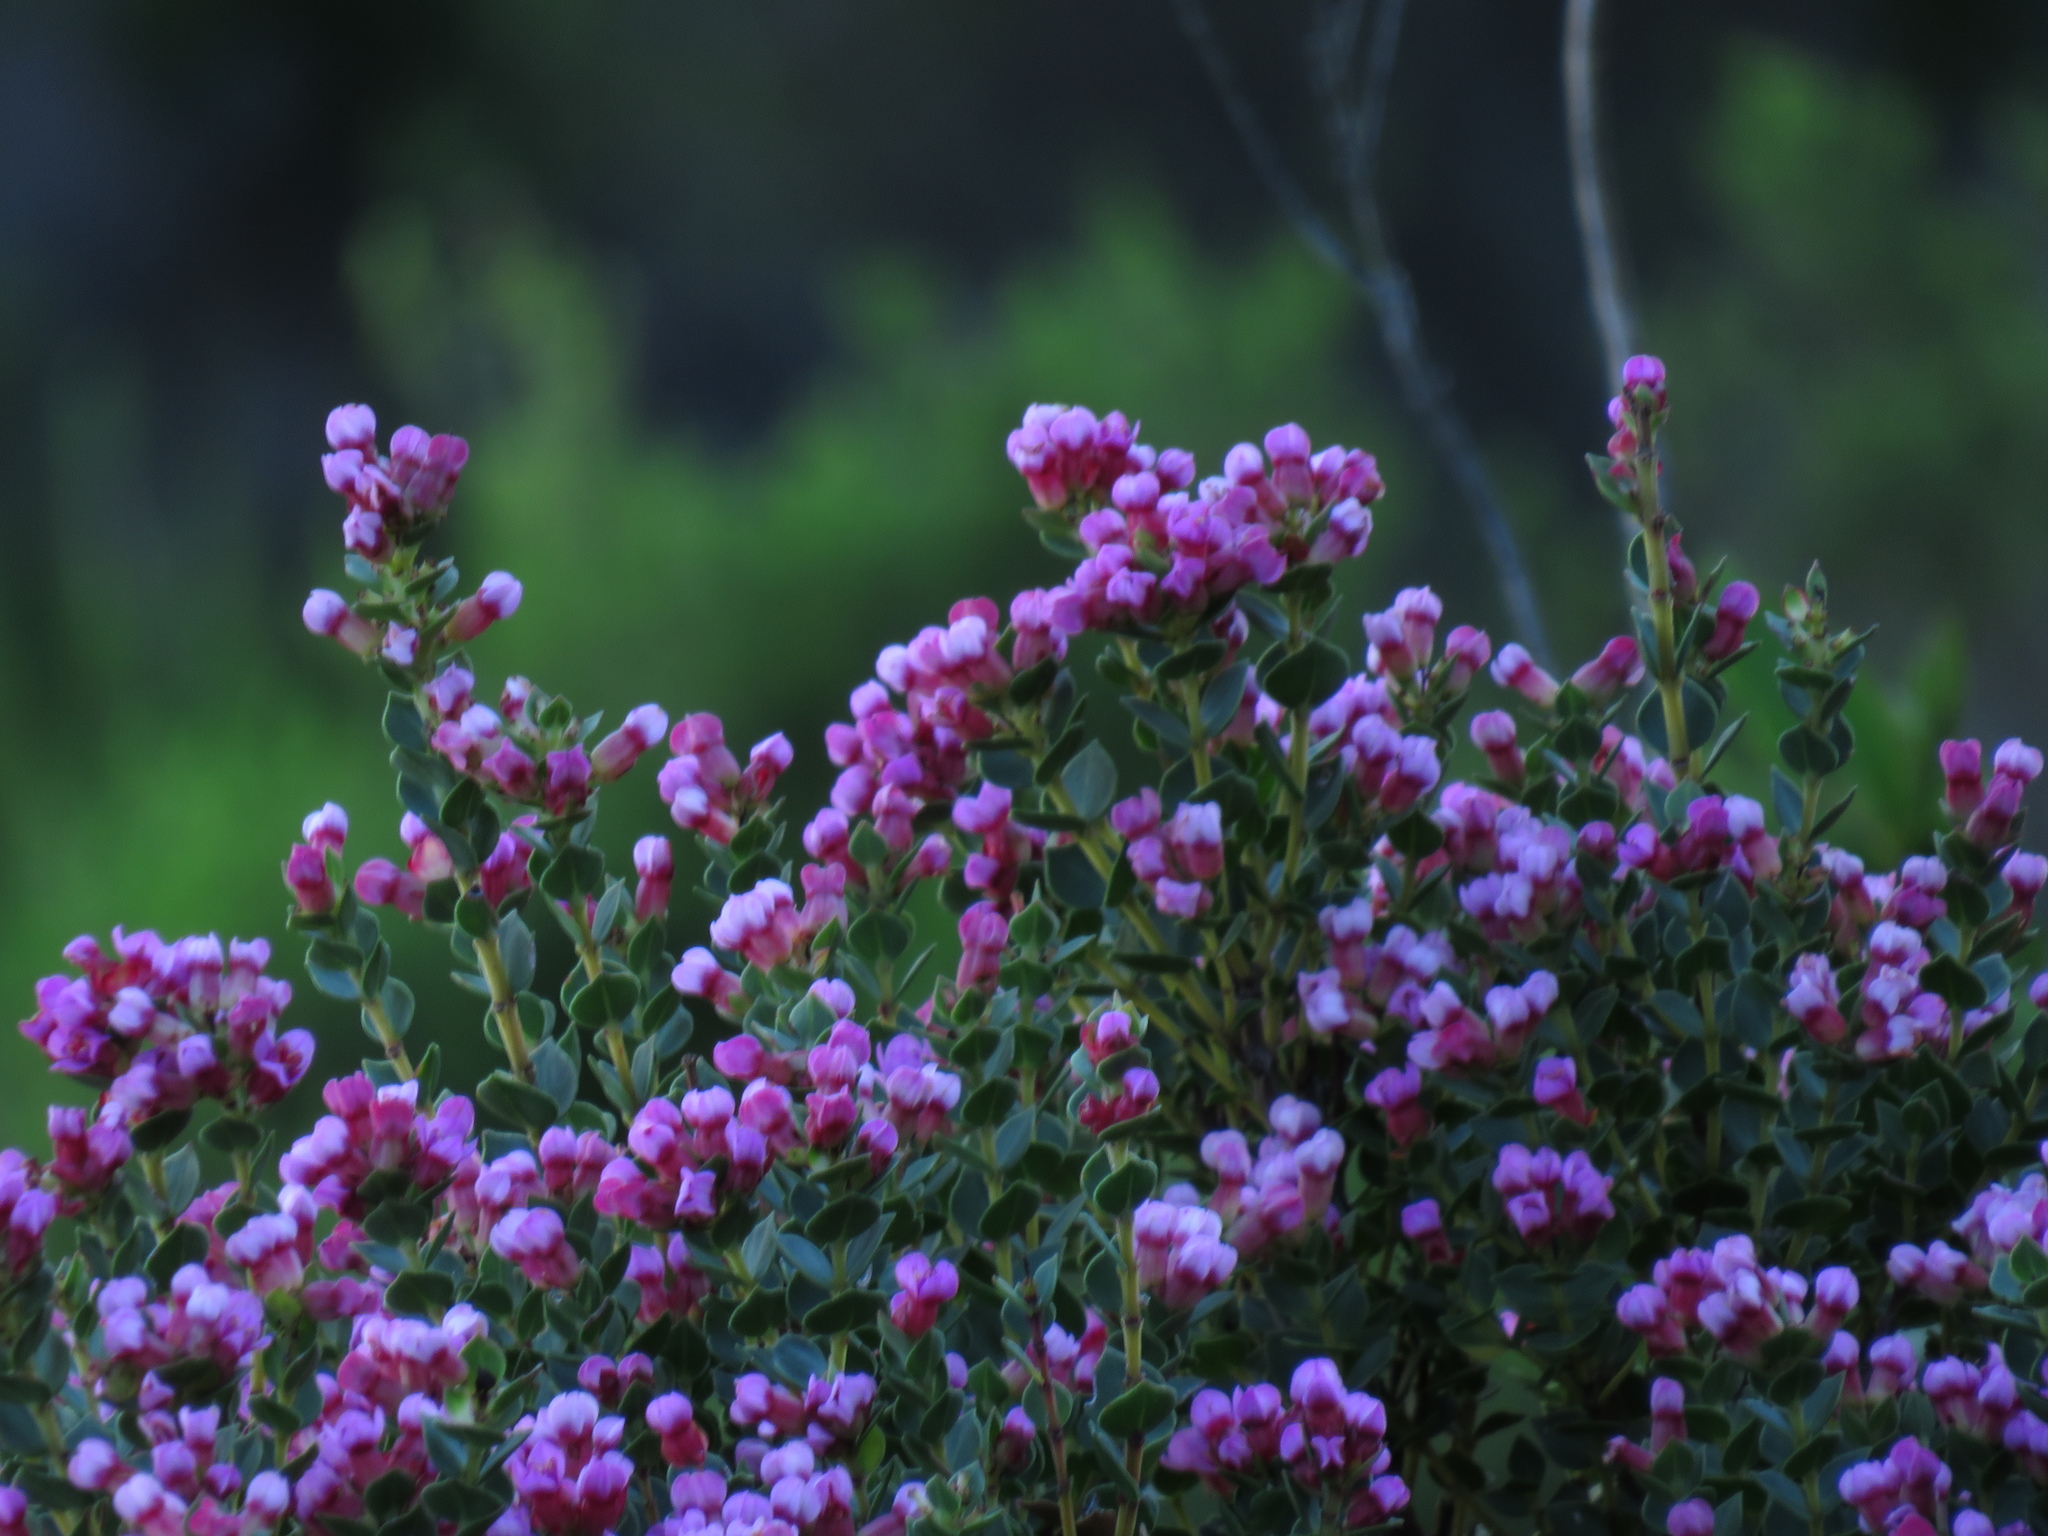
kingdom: Plantae
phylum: Tracheophyta
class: Magnoliopsida
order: Myrtales
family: Penaeaceae
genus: Brachysiphon
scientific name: Brachysiphon fucatus
